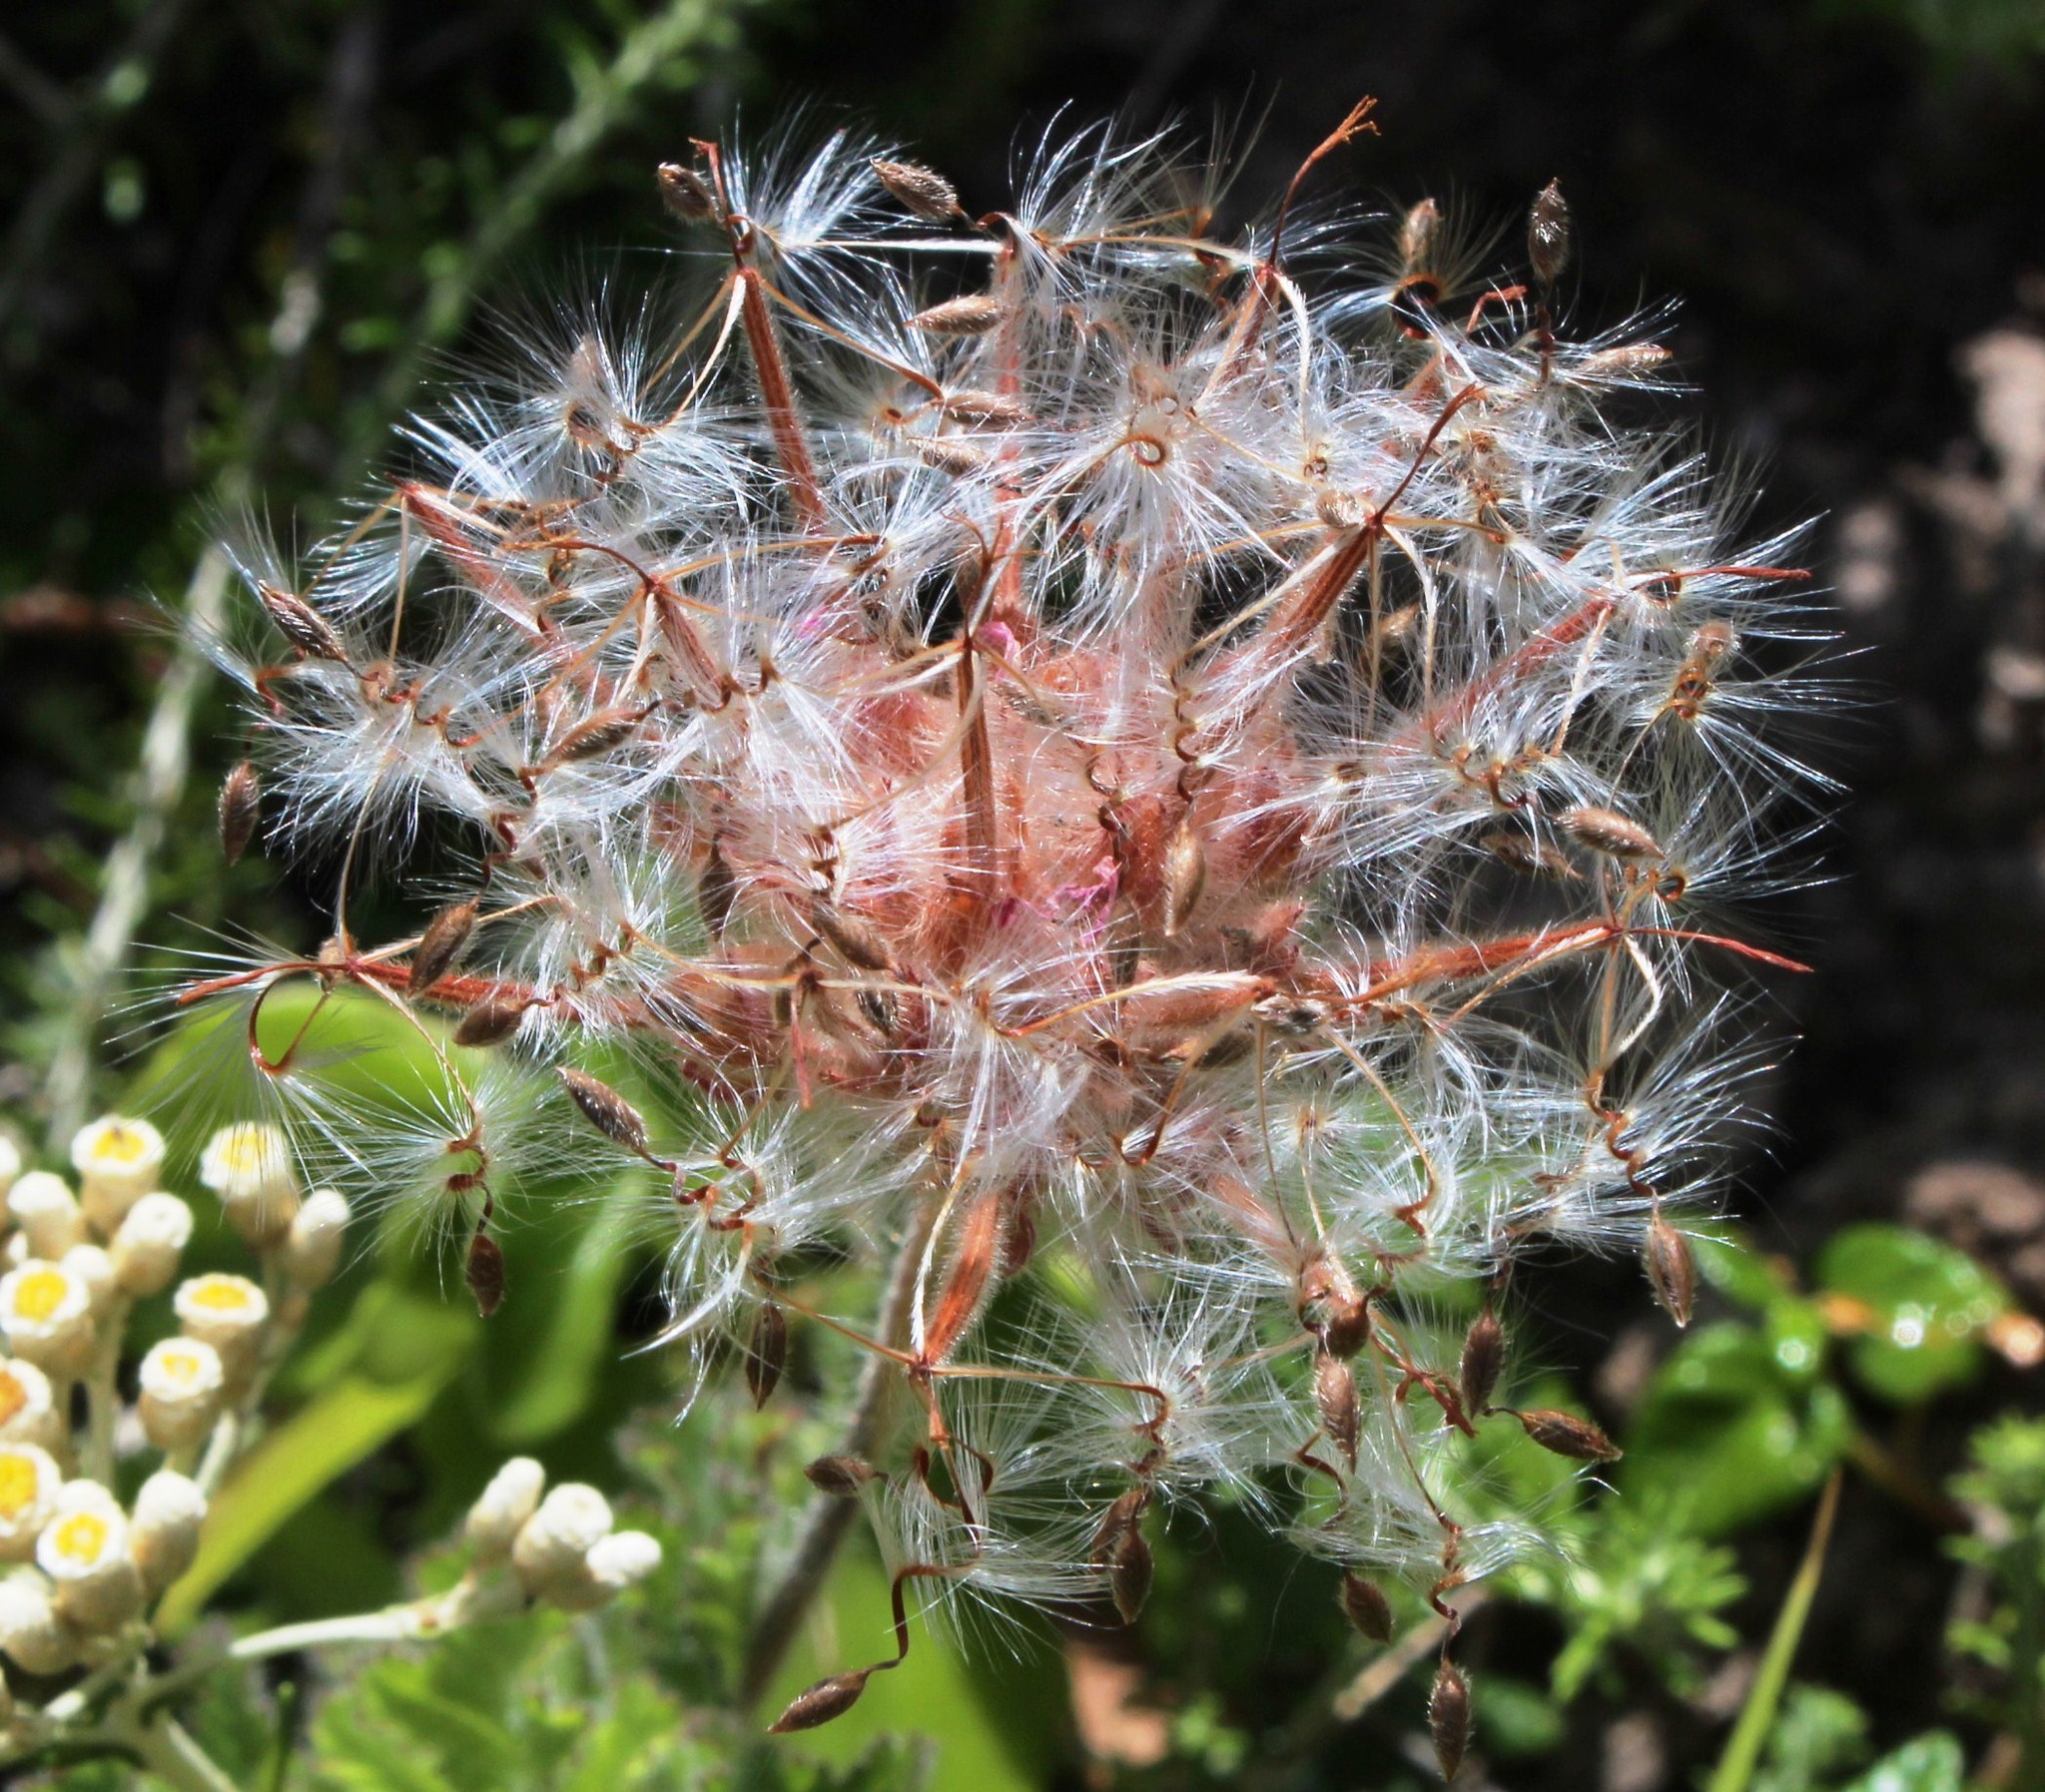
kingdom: Plantae
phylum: Tracheophyta
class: Magnoliopsida
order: Geraniales
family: Geraniaceae
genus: Pelargonium
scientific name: Pelargonium capitatum
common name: Rose scented geranium
